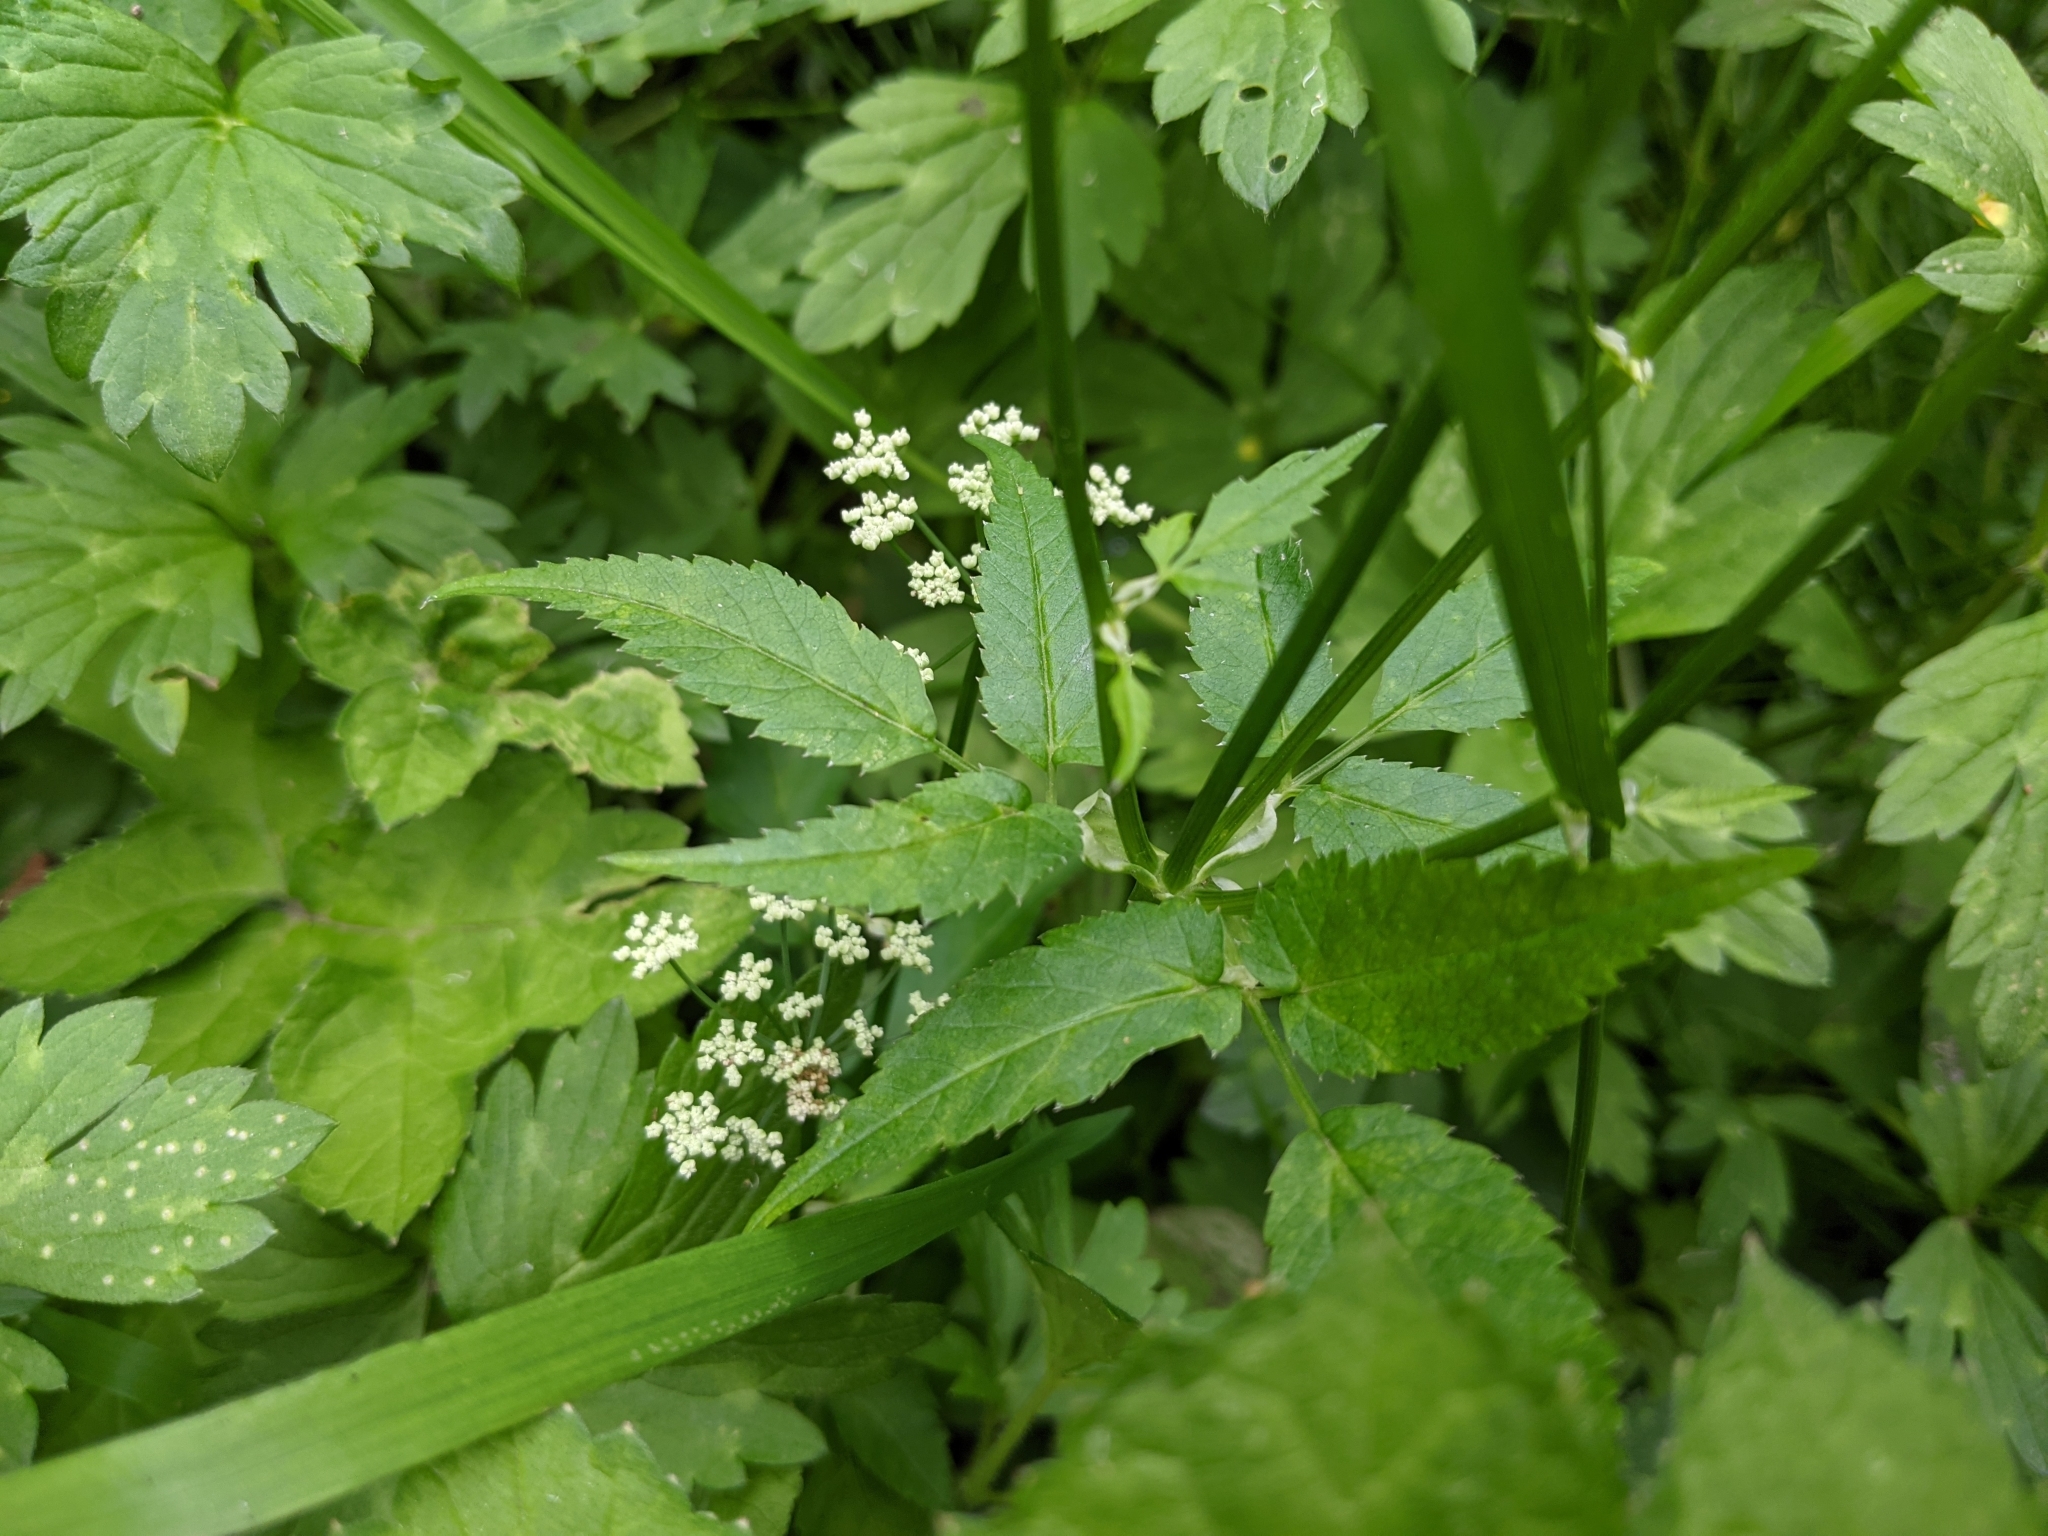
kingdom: Plantae
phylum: Tracheophyta
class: Magnoliopsida
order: Apiales
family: Apiaceae
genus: Aegopodium
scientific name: Aegopodium podagraria
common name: Ground-elder
